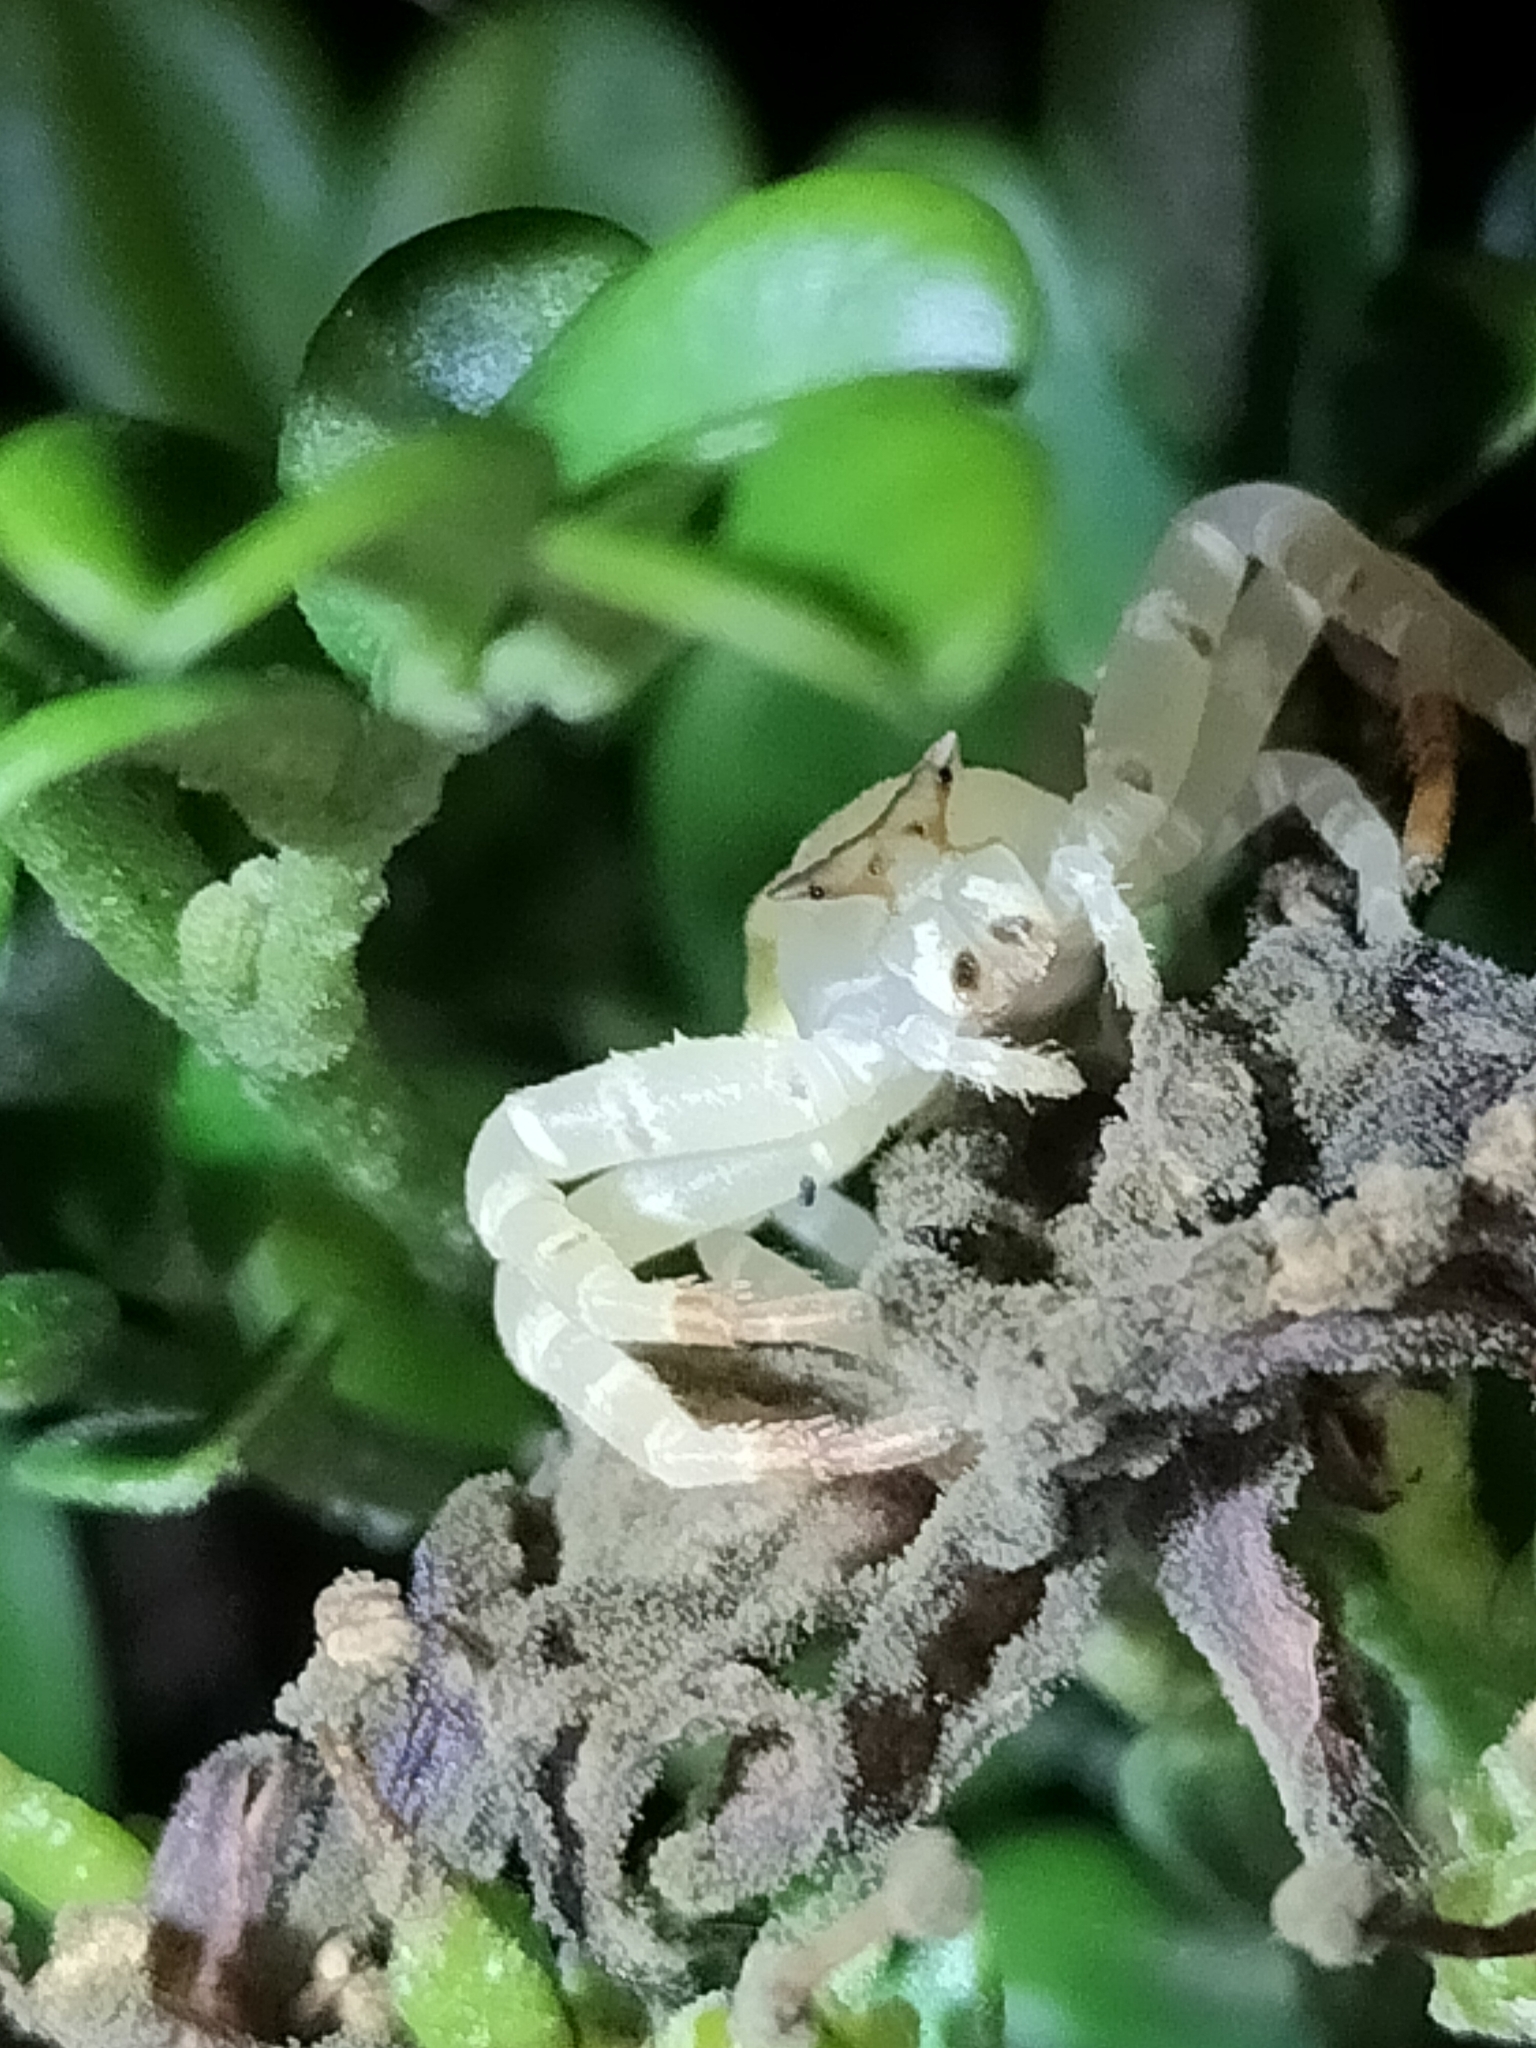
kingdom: Animalia
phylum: Arthropoda
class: Arachnida
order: Araneae
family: Thomisidae
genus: Thomisus
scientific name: Thomisus spectabilis
